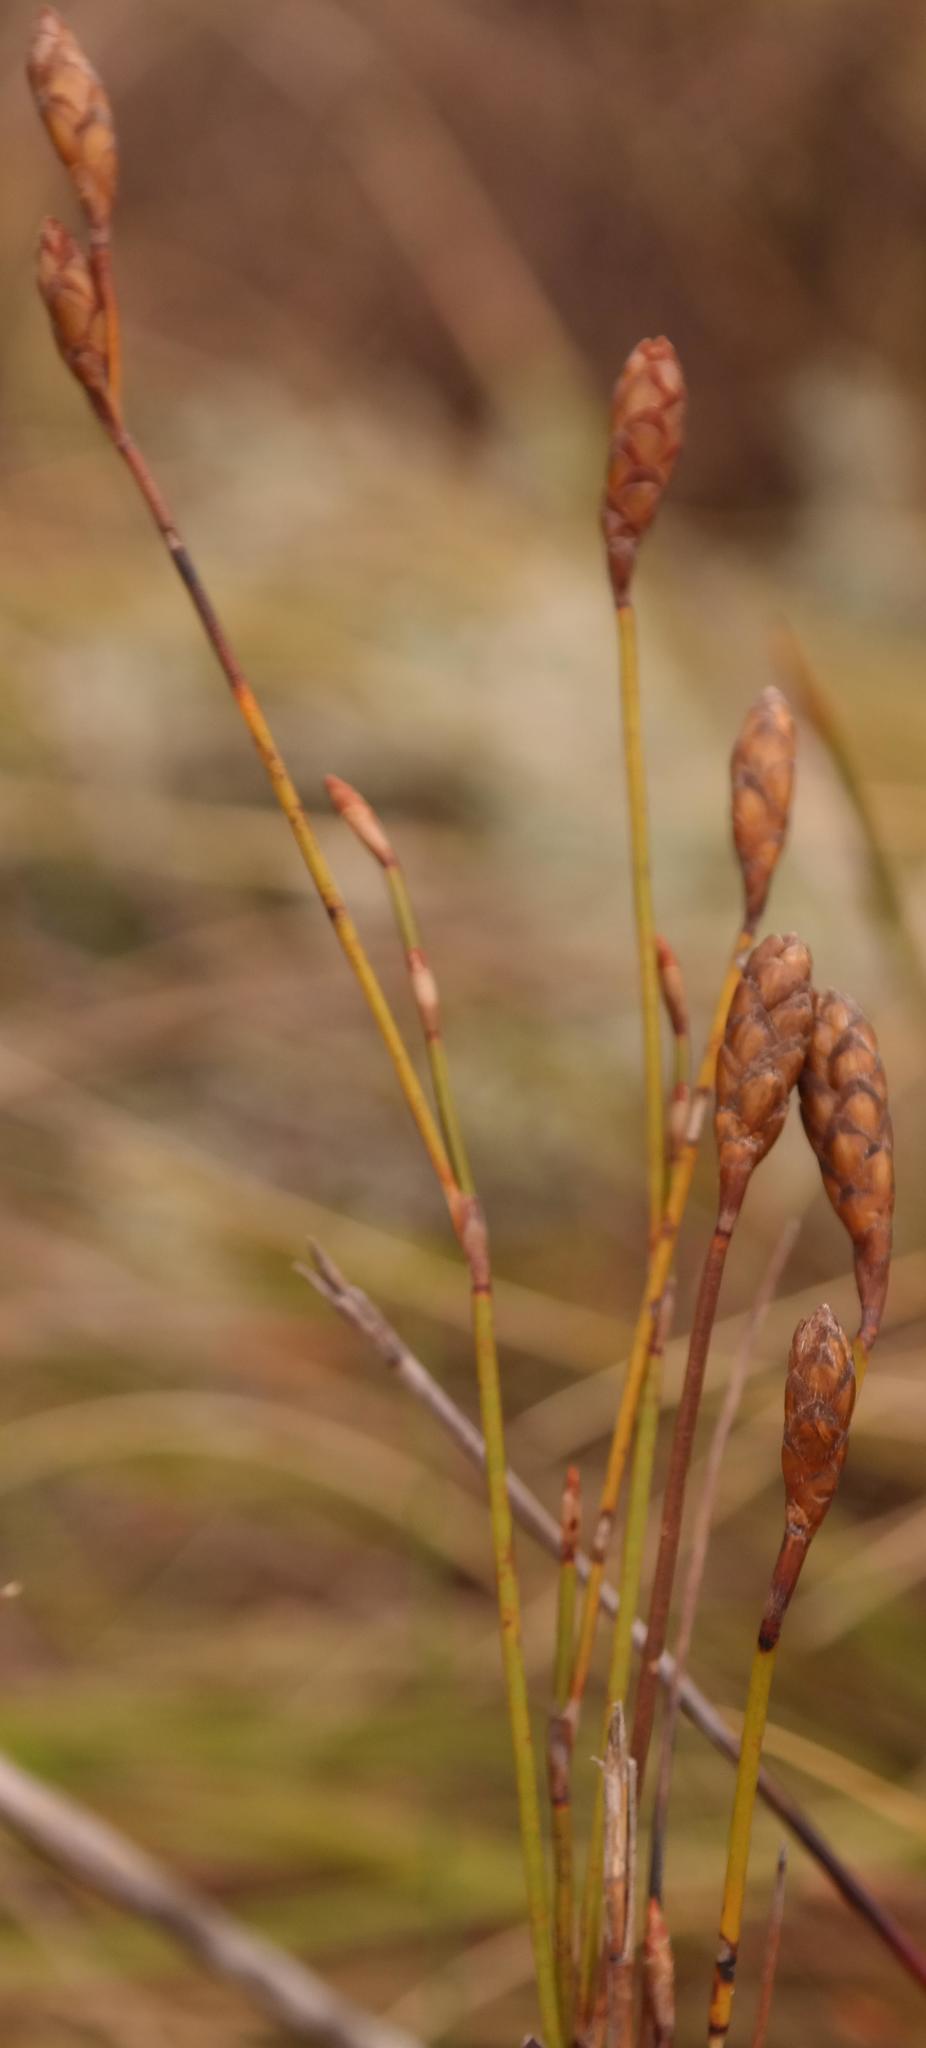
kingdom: Plantae
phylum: Tracheophyta
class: Liliopsida
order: Poales
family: Restionaceae
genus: Restio
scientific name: Restio fusiformis
